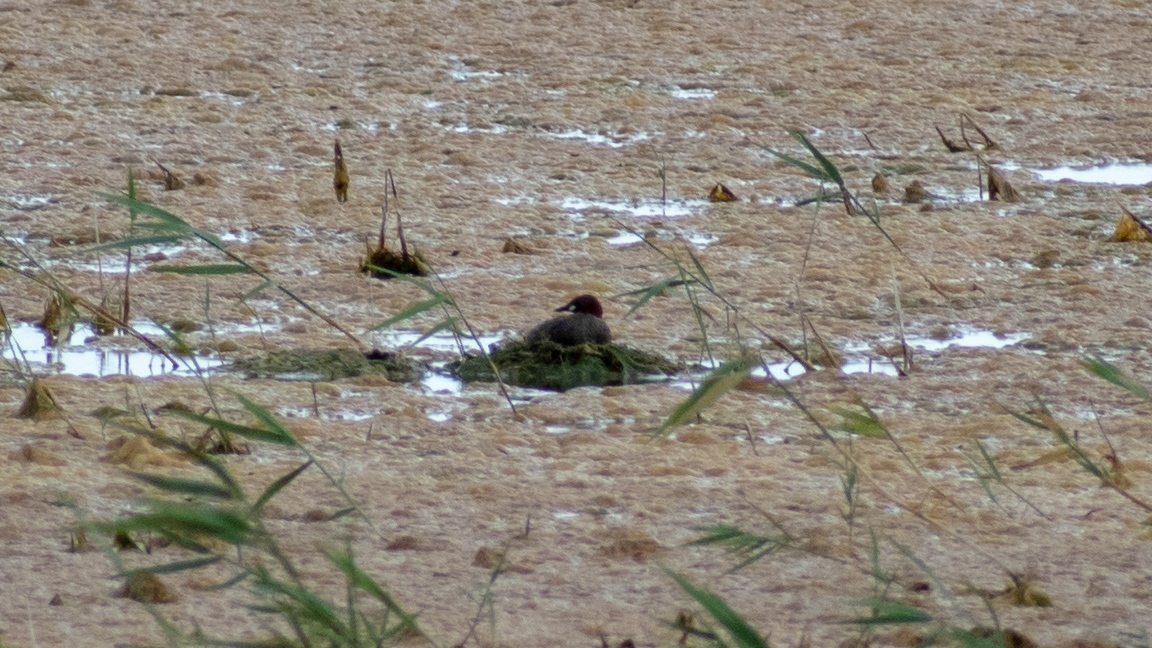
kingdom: Animalia
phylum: Chordata
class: Aves
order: Podicipediformes
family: Podicipedidae
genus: Tachybaptus
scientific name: Tachybaptus ruficollis
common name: Little grebe
